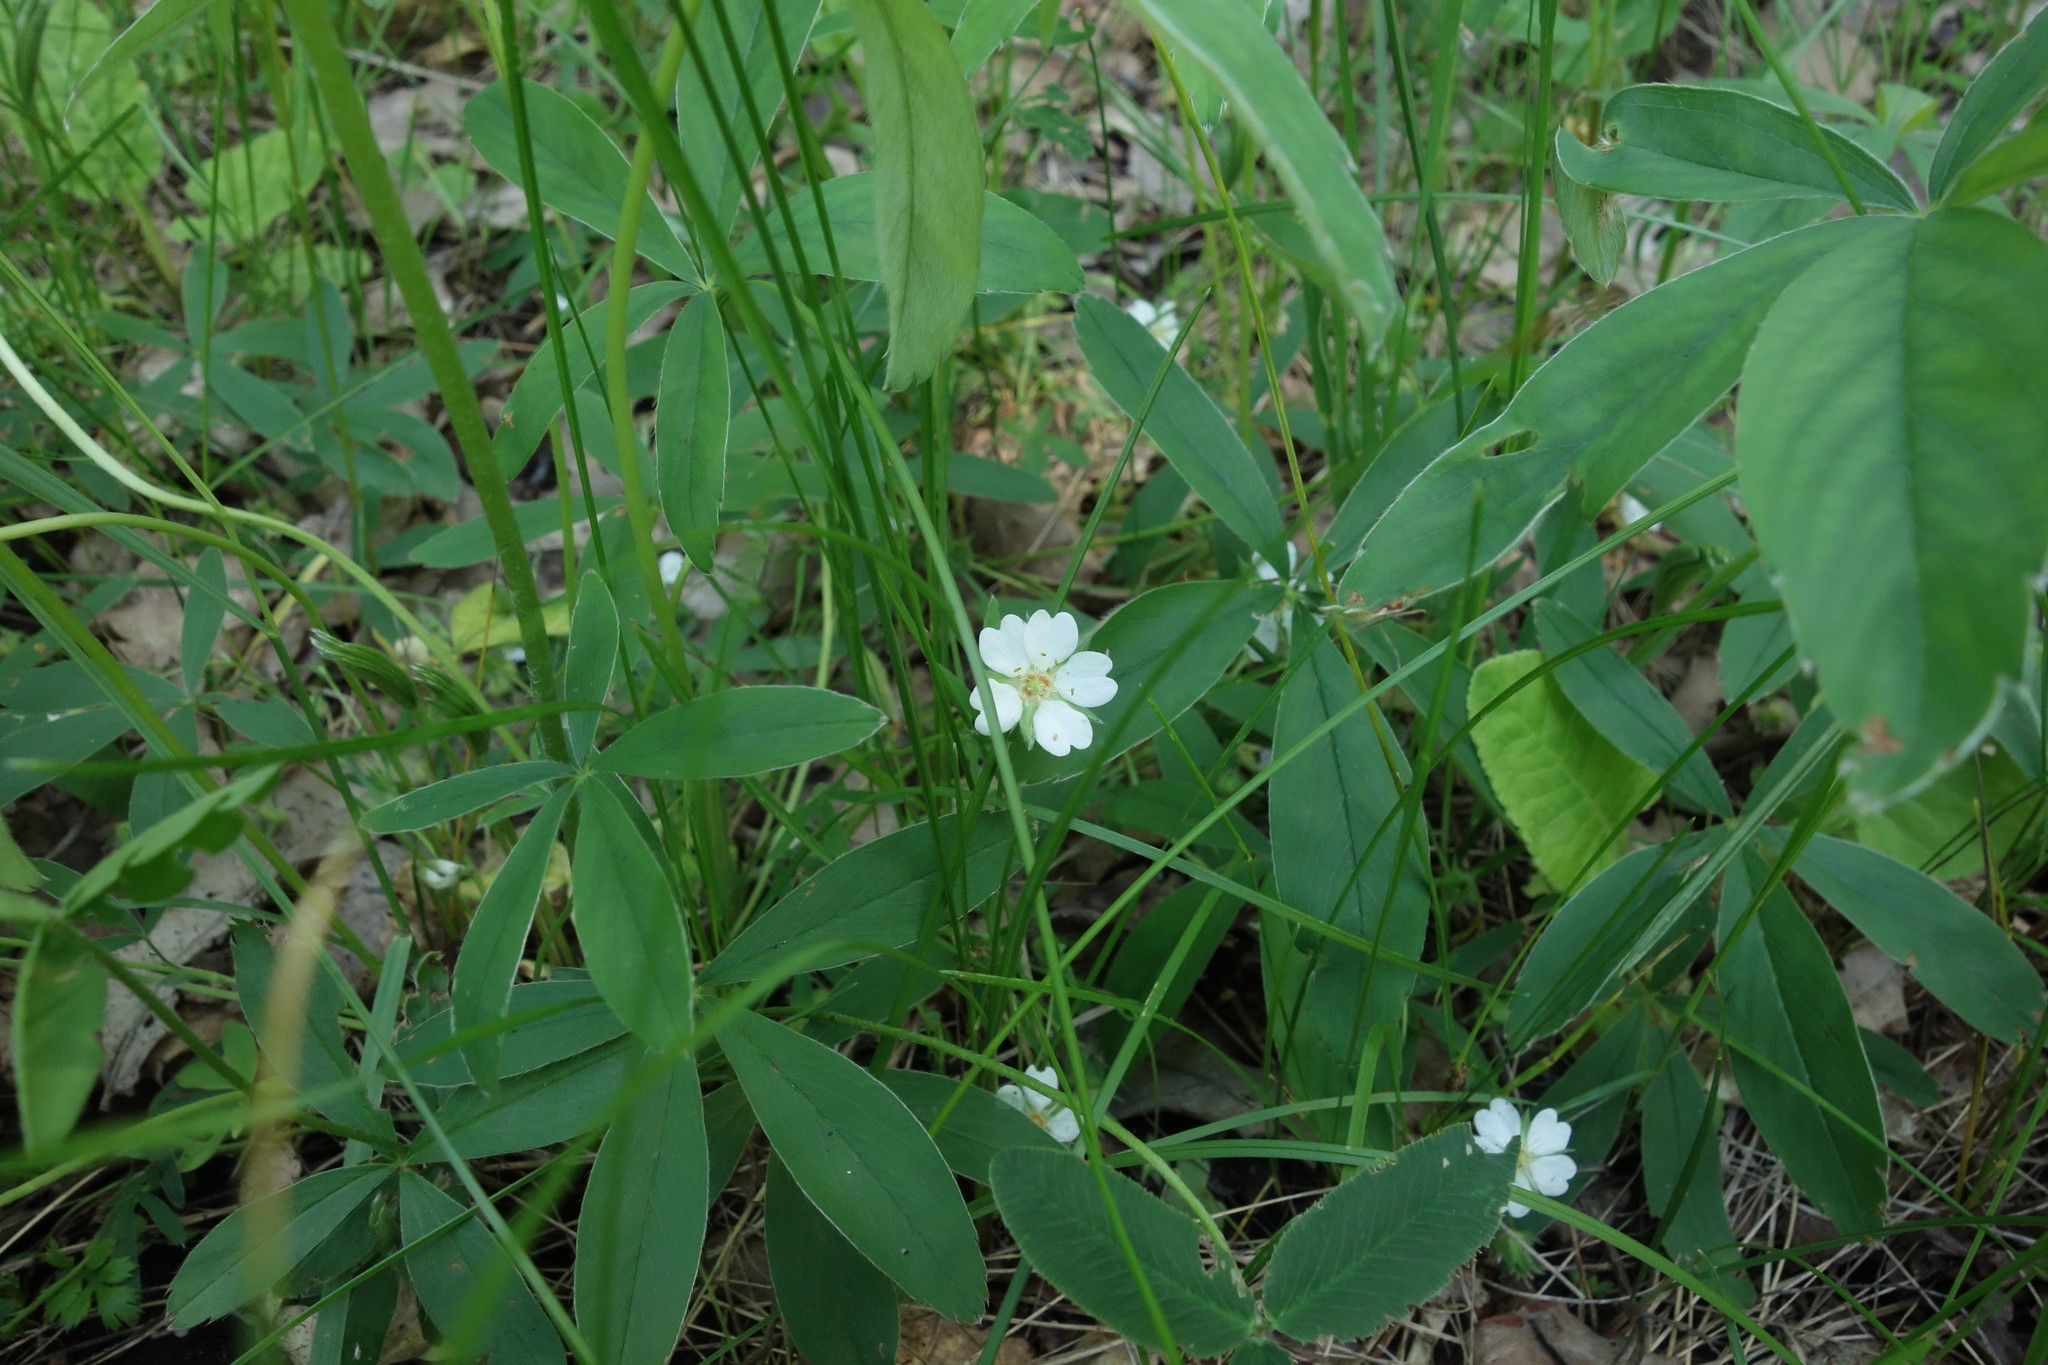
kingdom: Plantae
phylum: Tracheophyta
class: Magnoliopsida
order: Rosales
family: Rosaceae
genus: Potentilla
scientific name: Potentilla alba
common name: White cinquefoil
